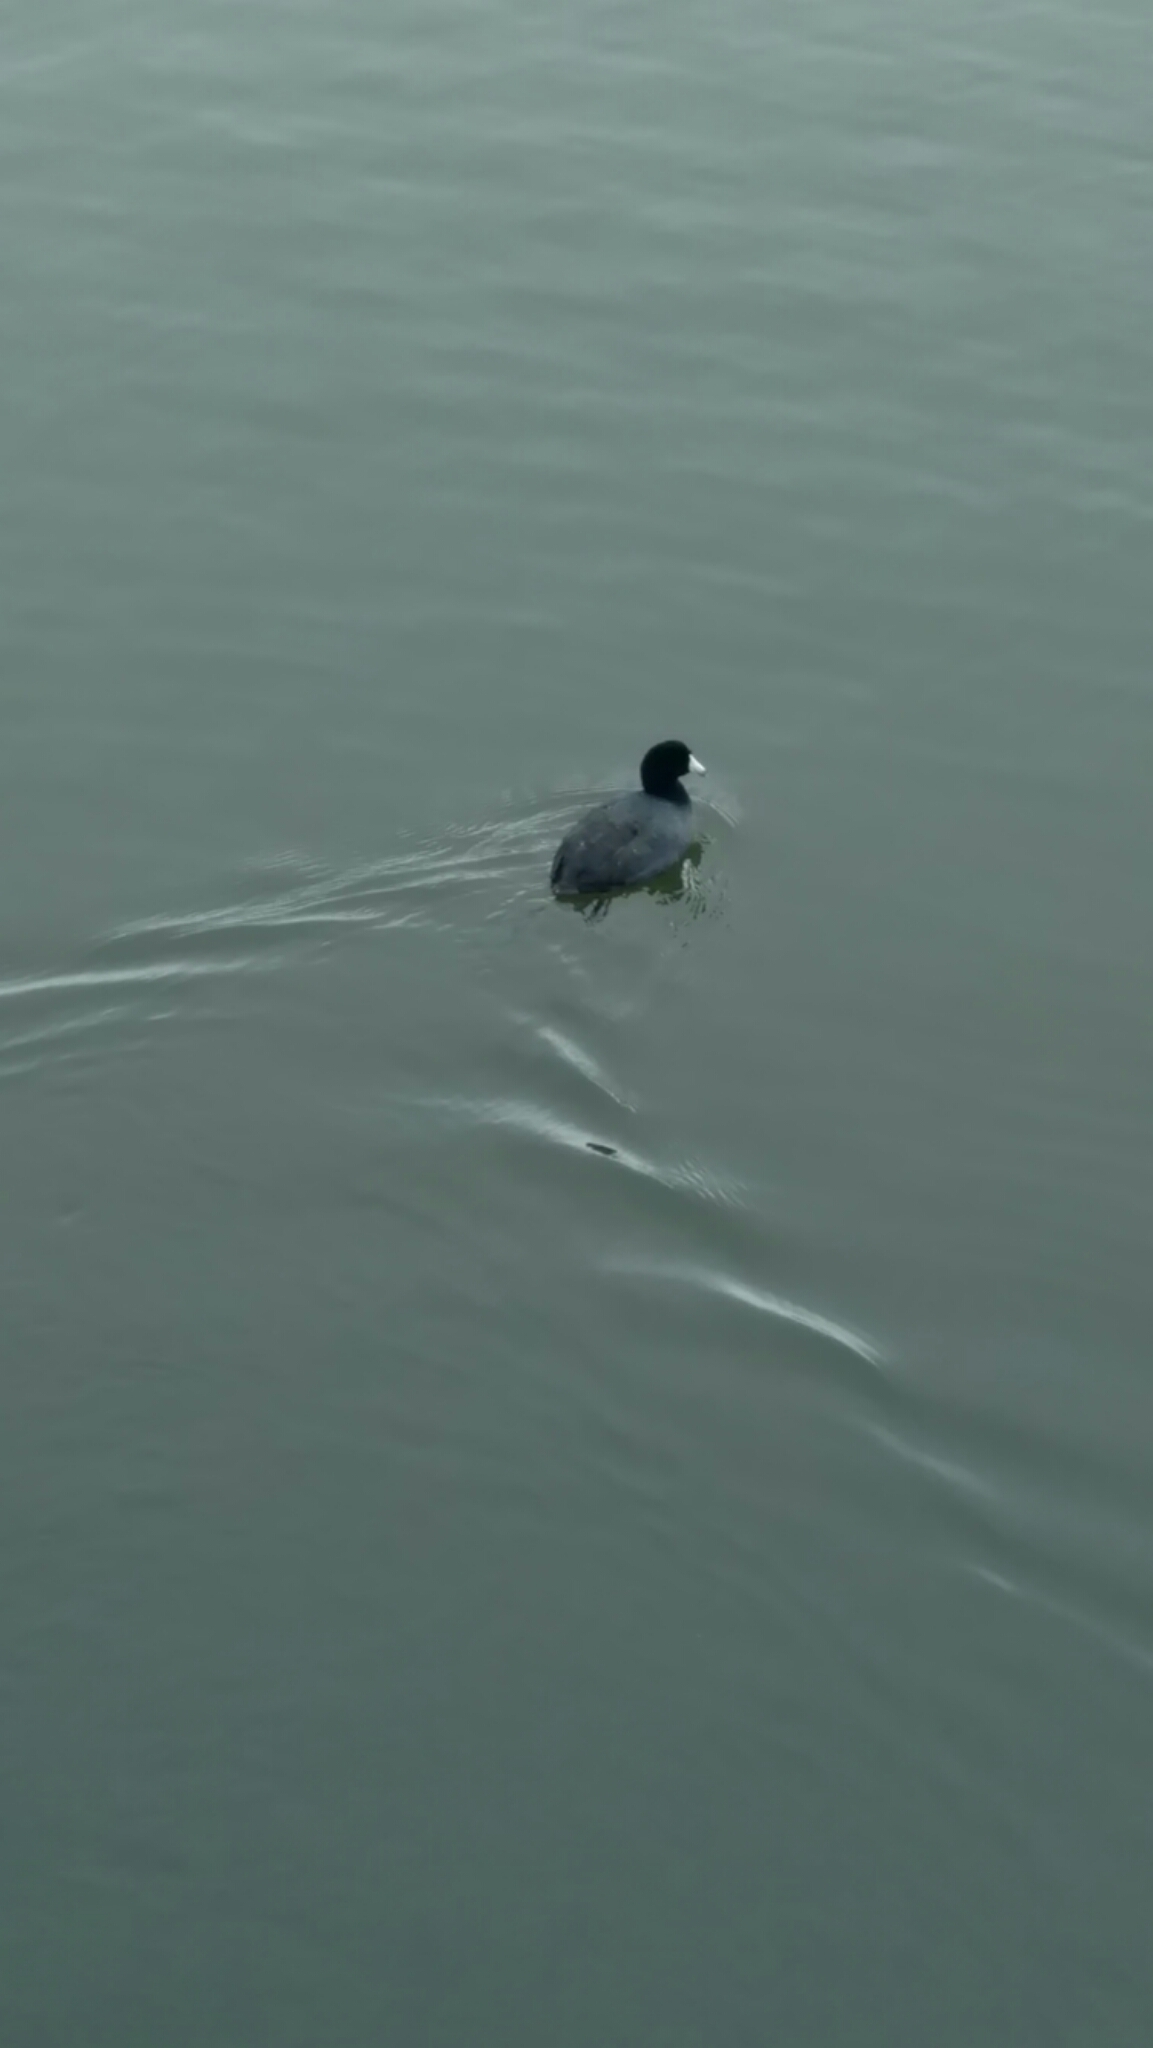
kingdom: Animalia
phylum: Chordata
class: Aves
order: Gruiformes
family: Rallidae
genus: Fulica
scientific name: Fulica americana
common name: American coot
